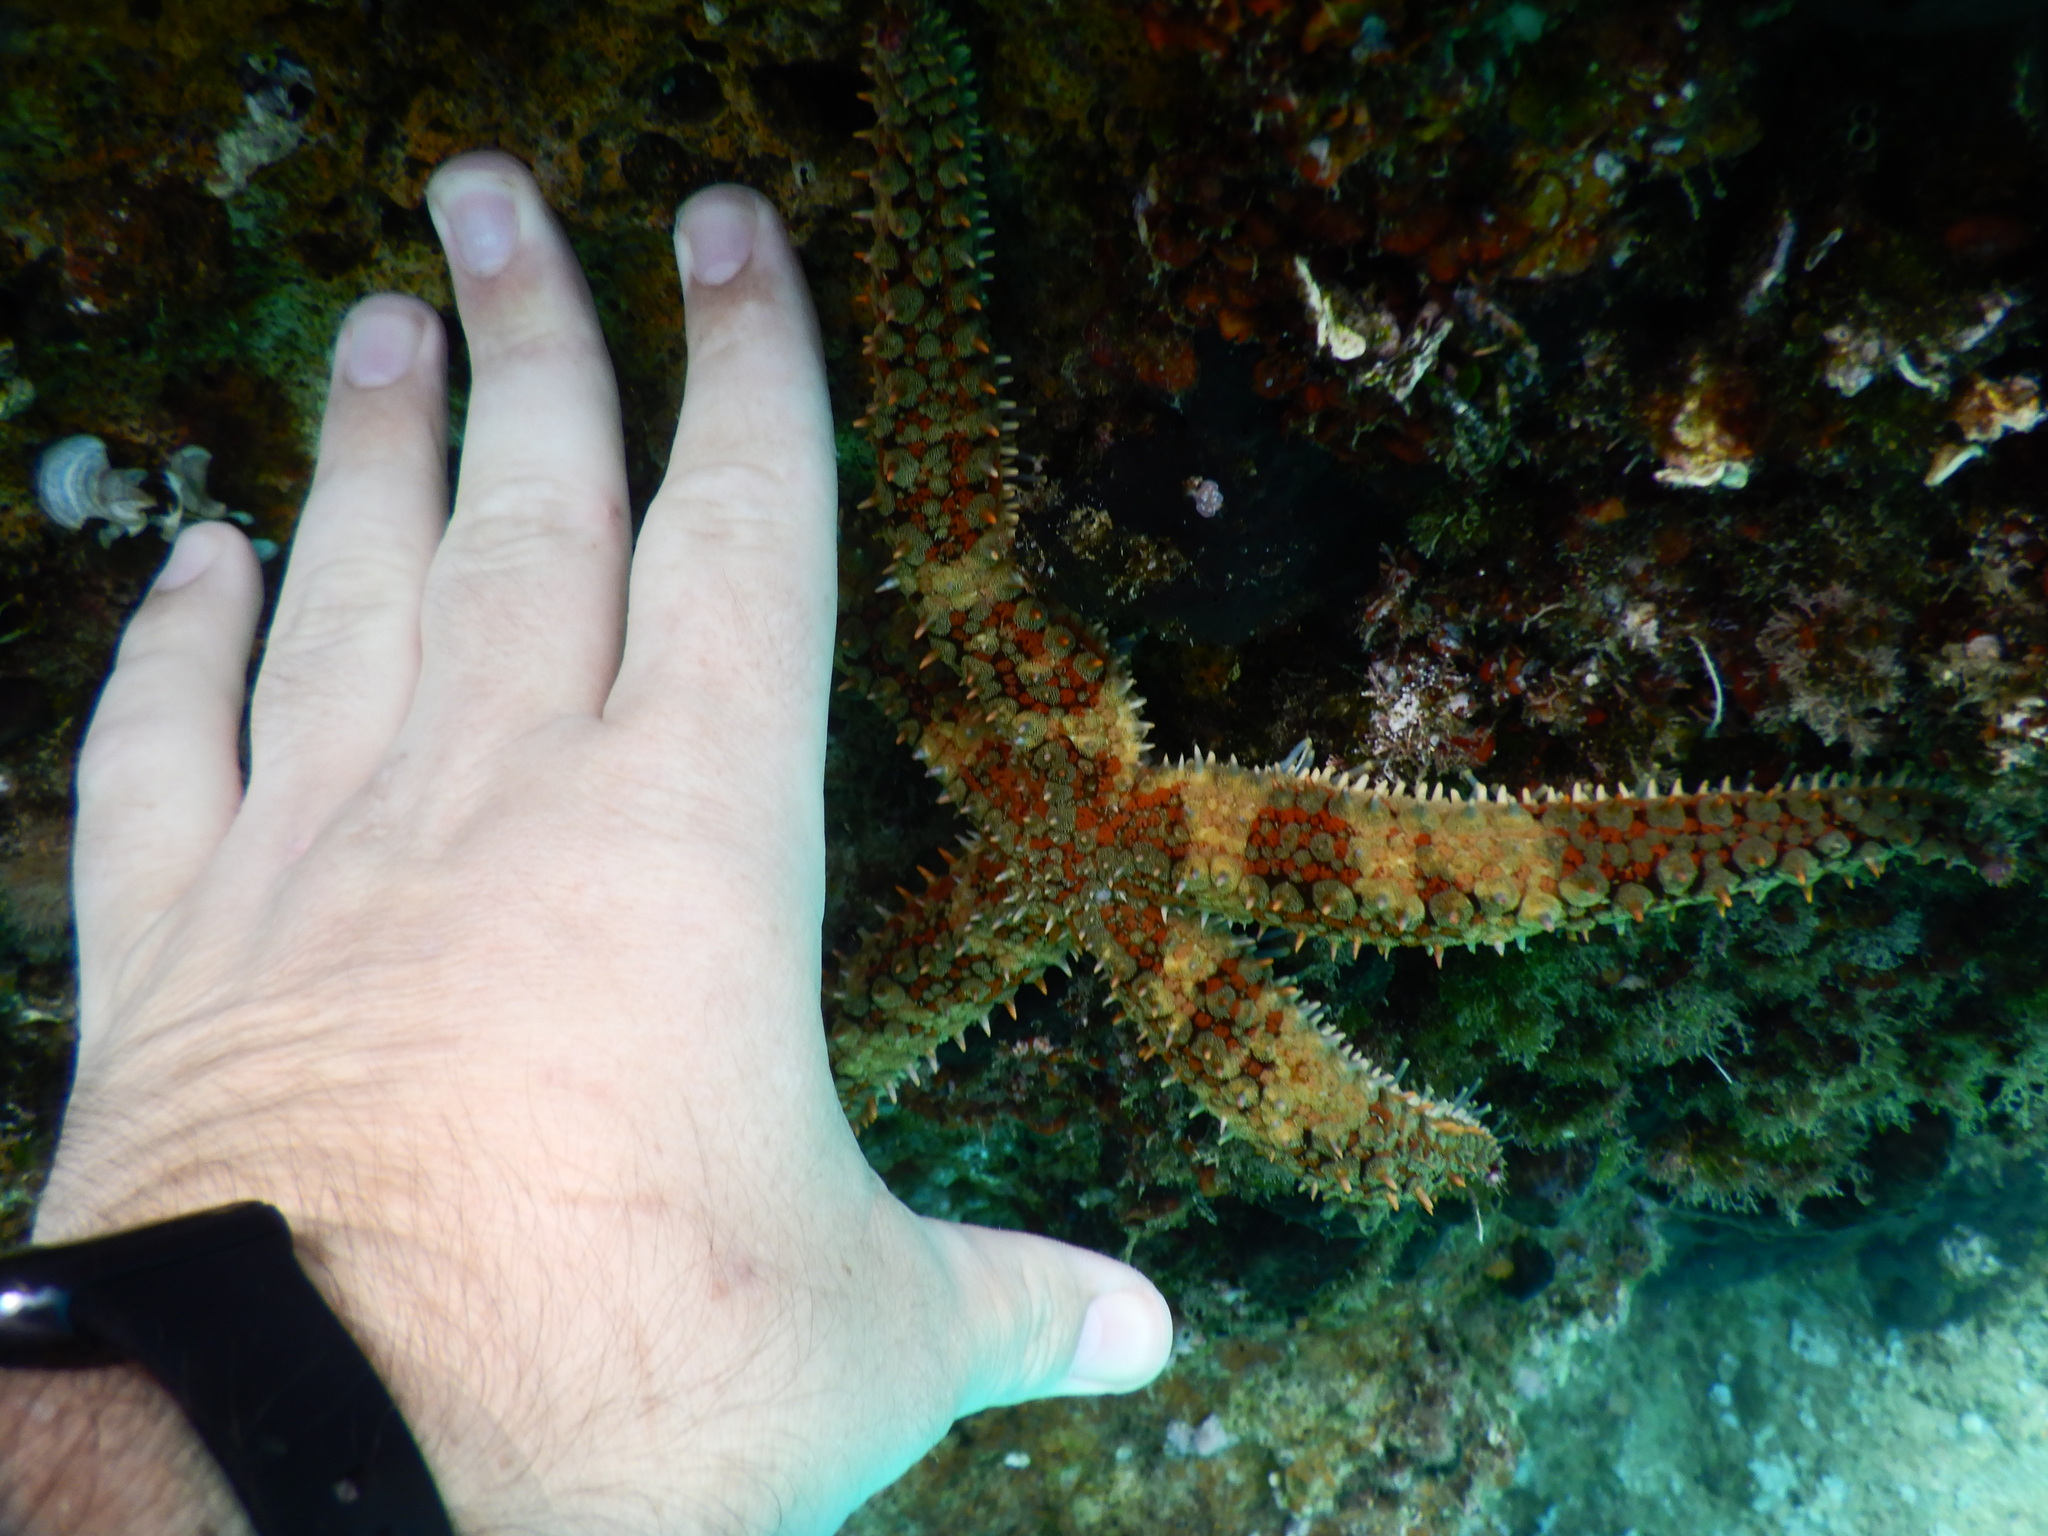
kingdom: Animalia
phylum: Echinodermata
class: Asteroidea
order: Forcipulatida
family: Asteriidae
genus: Marthasterias
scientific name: Marthasterias glacialis
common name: Spiny starfish
